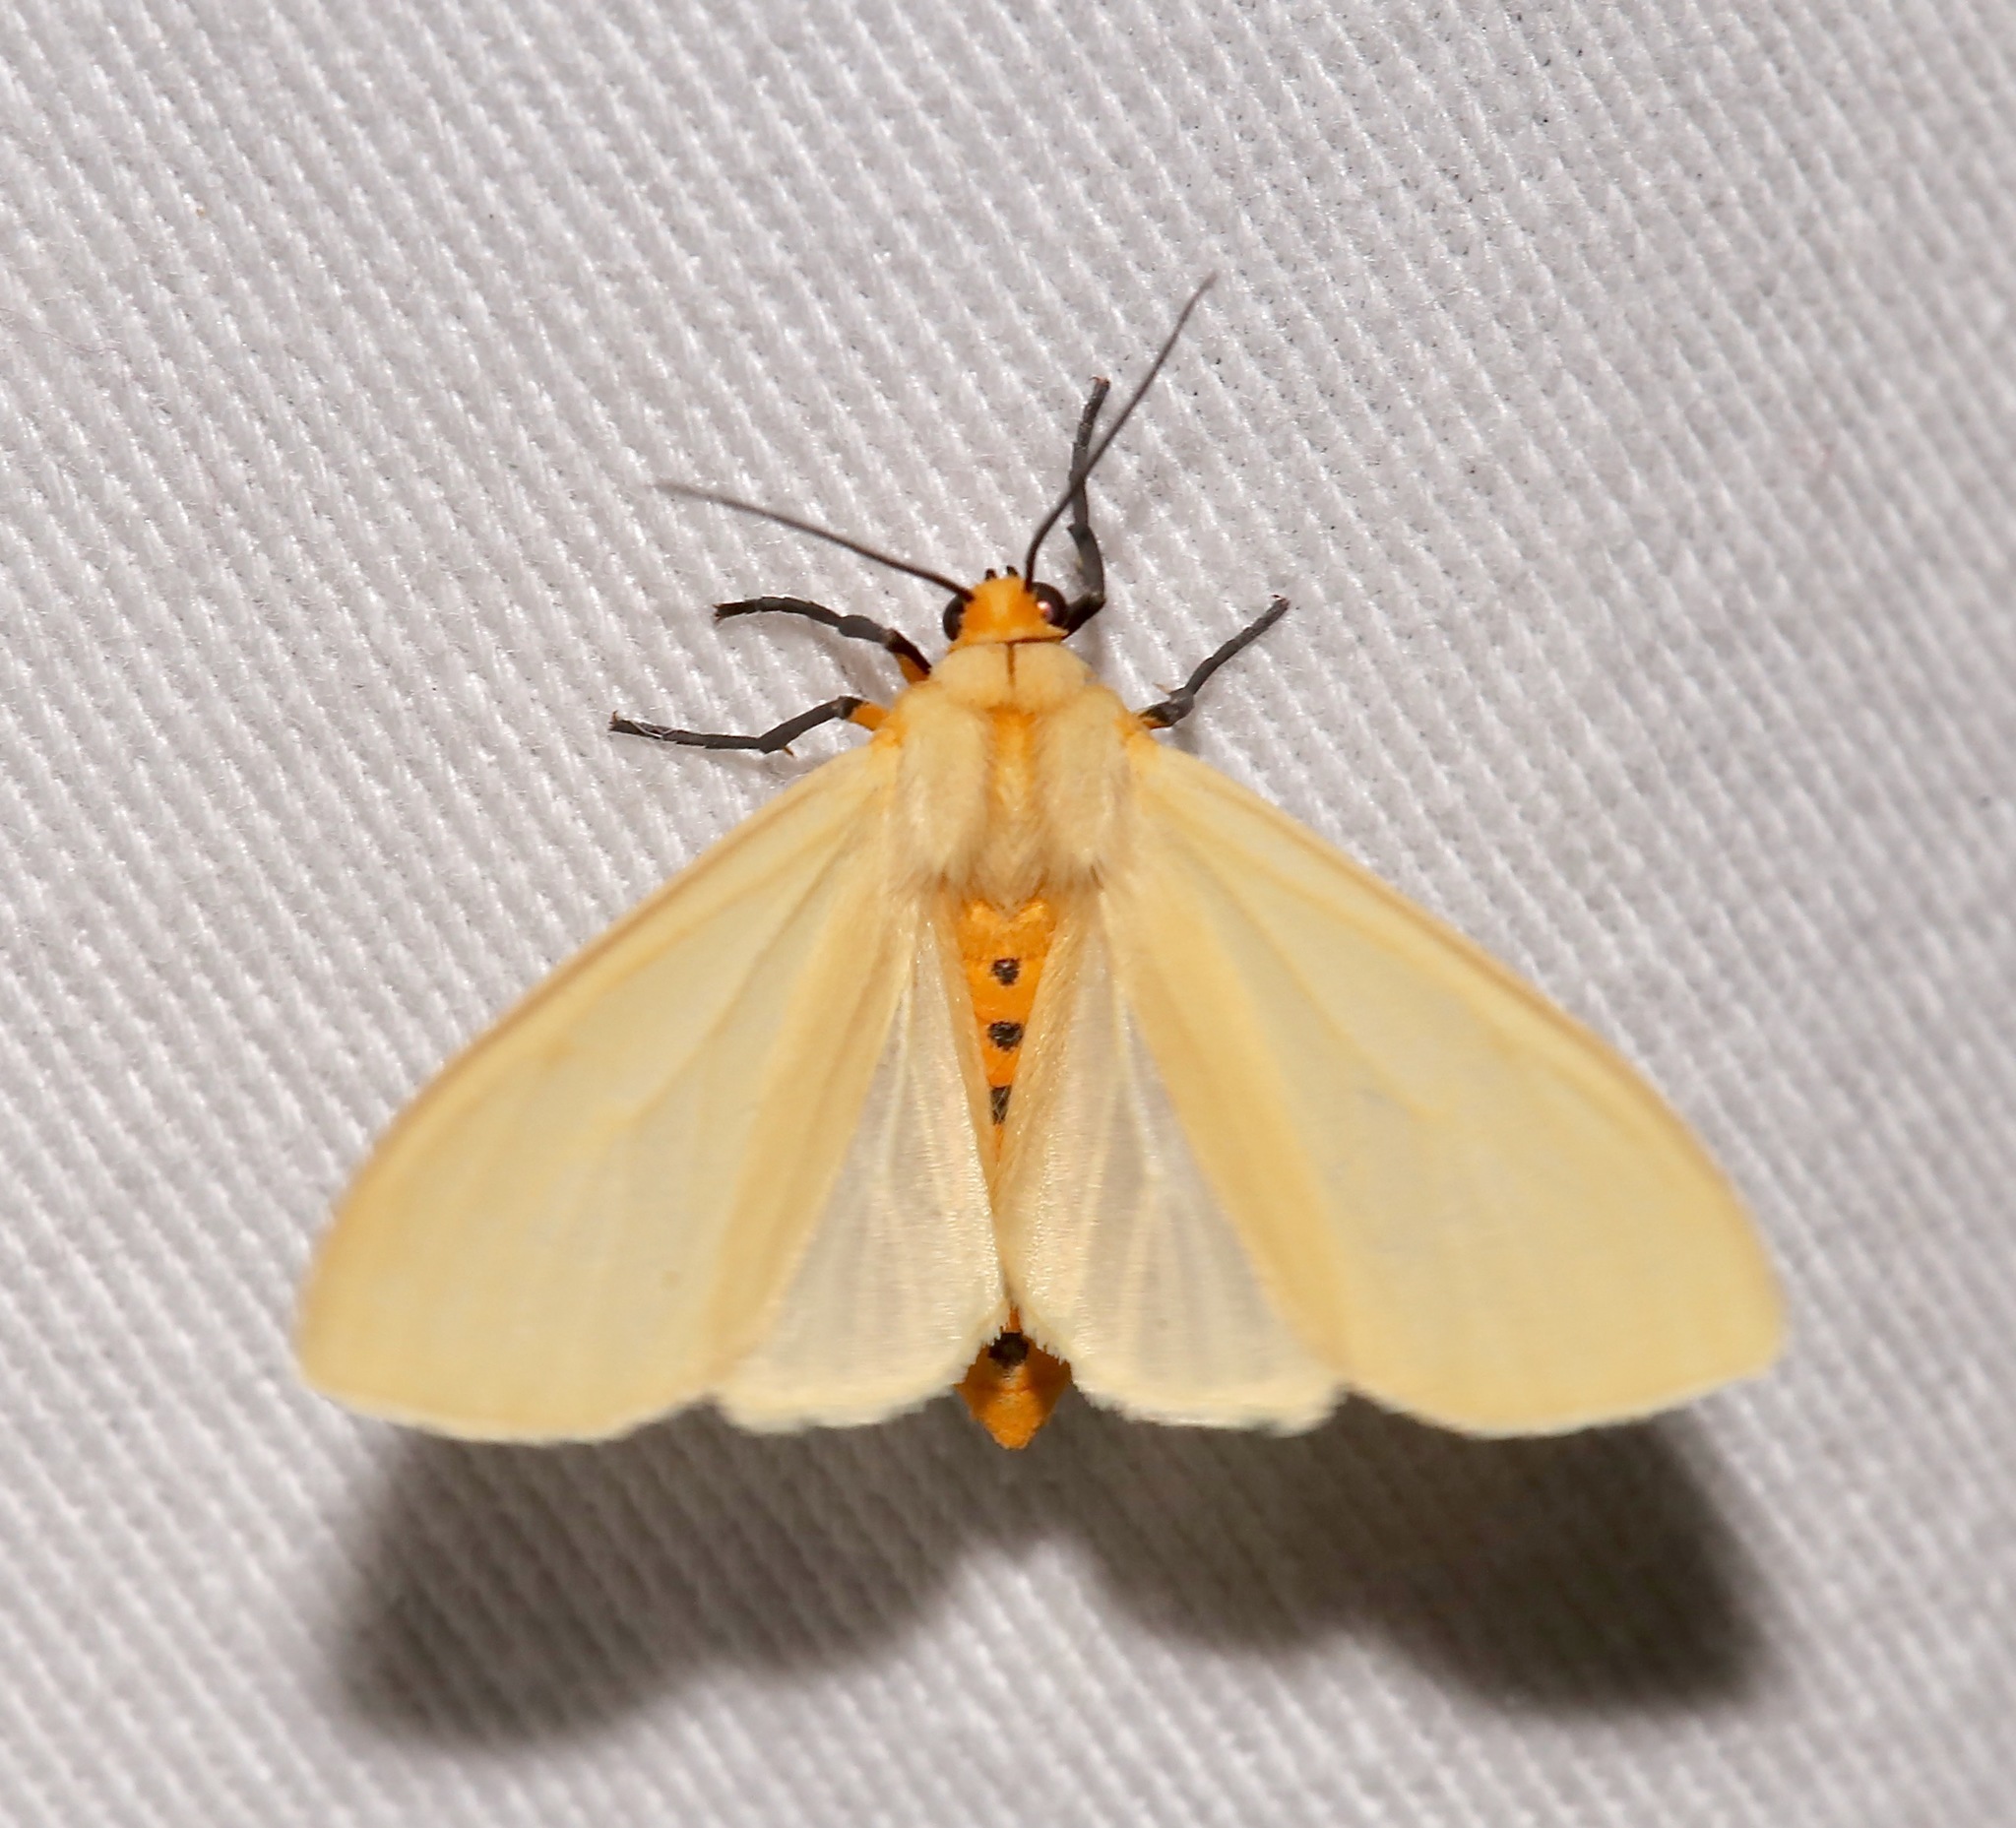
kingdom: Animalia
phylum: Arthropoda
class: Insecta
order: Lepidoptera
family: Erebidae
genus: Pareuchaetes
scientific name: Pareuchaetes insulata
